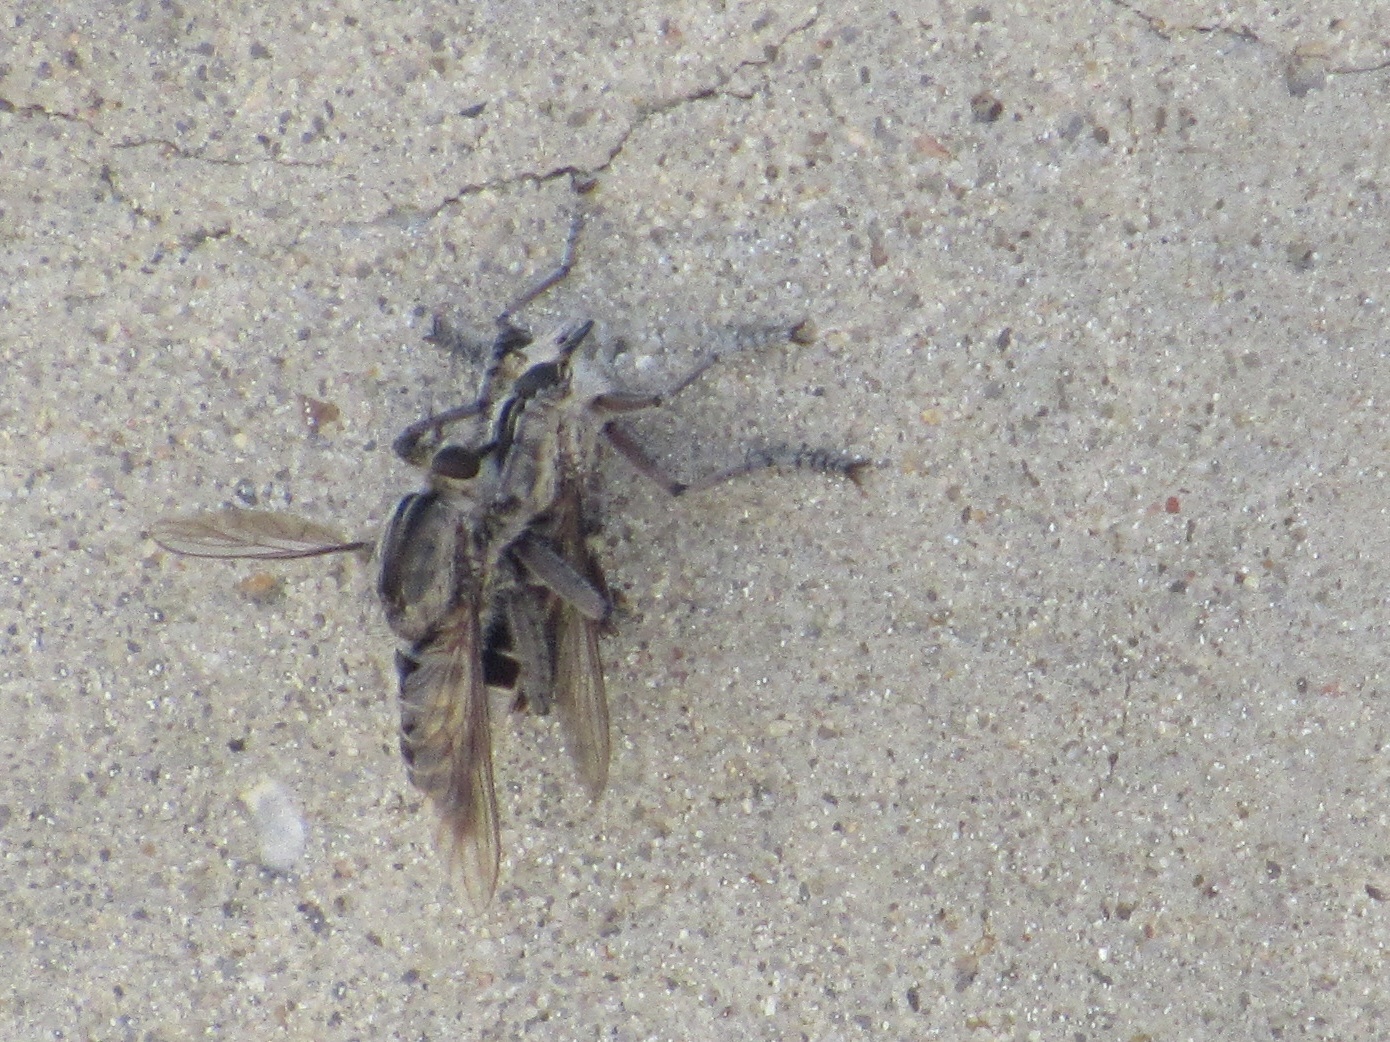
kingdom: Animalia
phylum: Arthropoda
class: Insecta
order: Diptera
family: Asilidae
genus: Triorla
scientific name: Triorla interrupta
